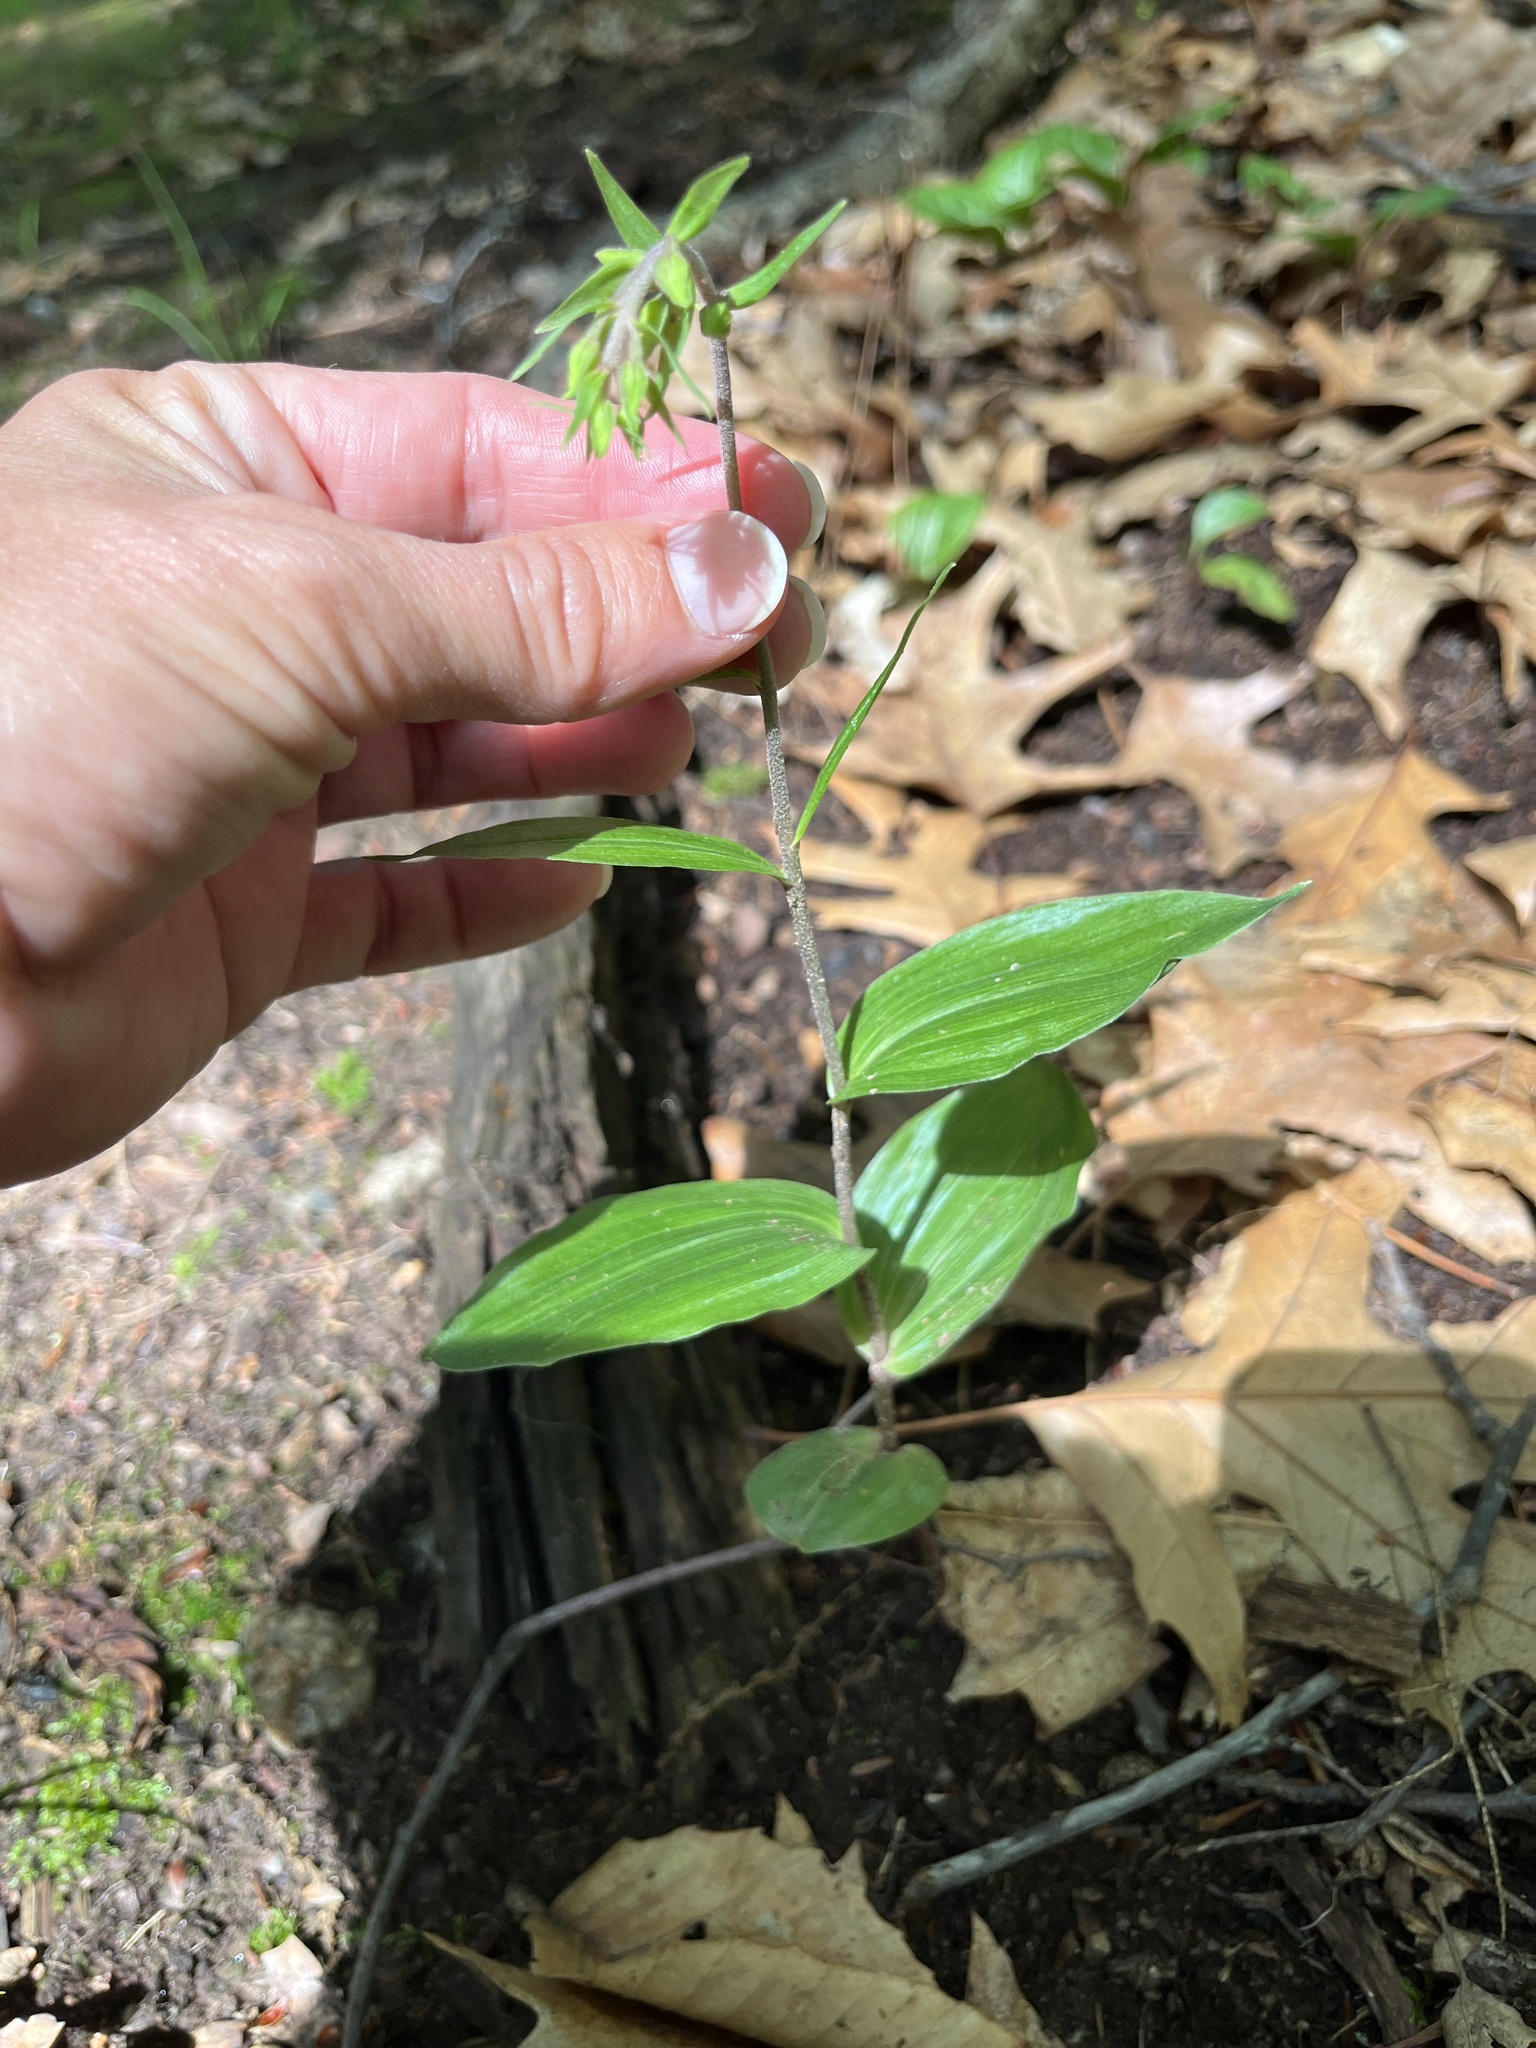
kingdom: Plantae
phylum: Tracheophyta
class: Liliopsida
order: Asparagales
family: Orchidaceae
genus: Epipactis
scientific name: Epipactis helleborine
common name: Broad-leaved helleborine
